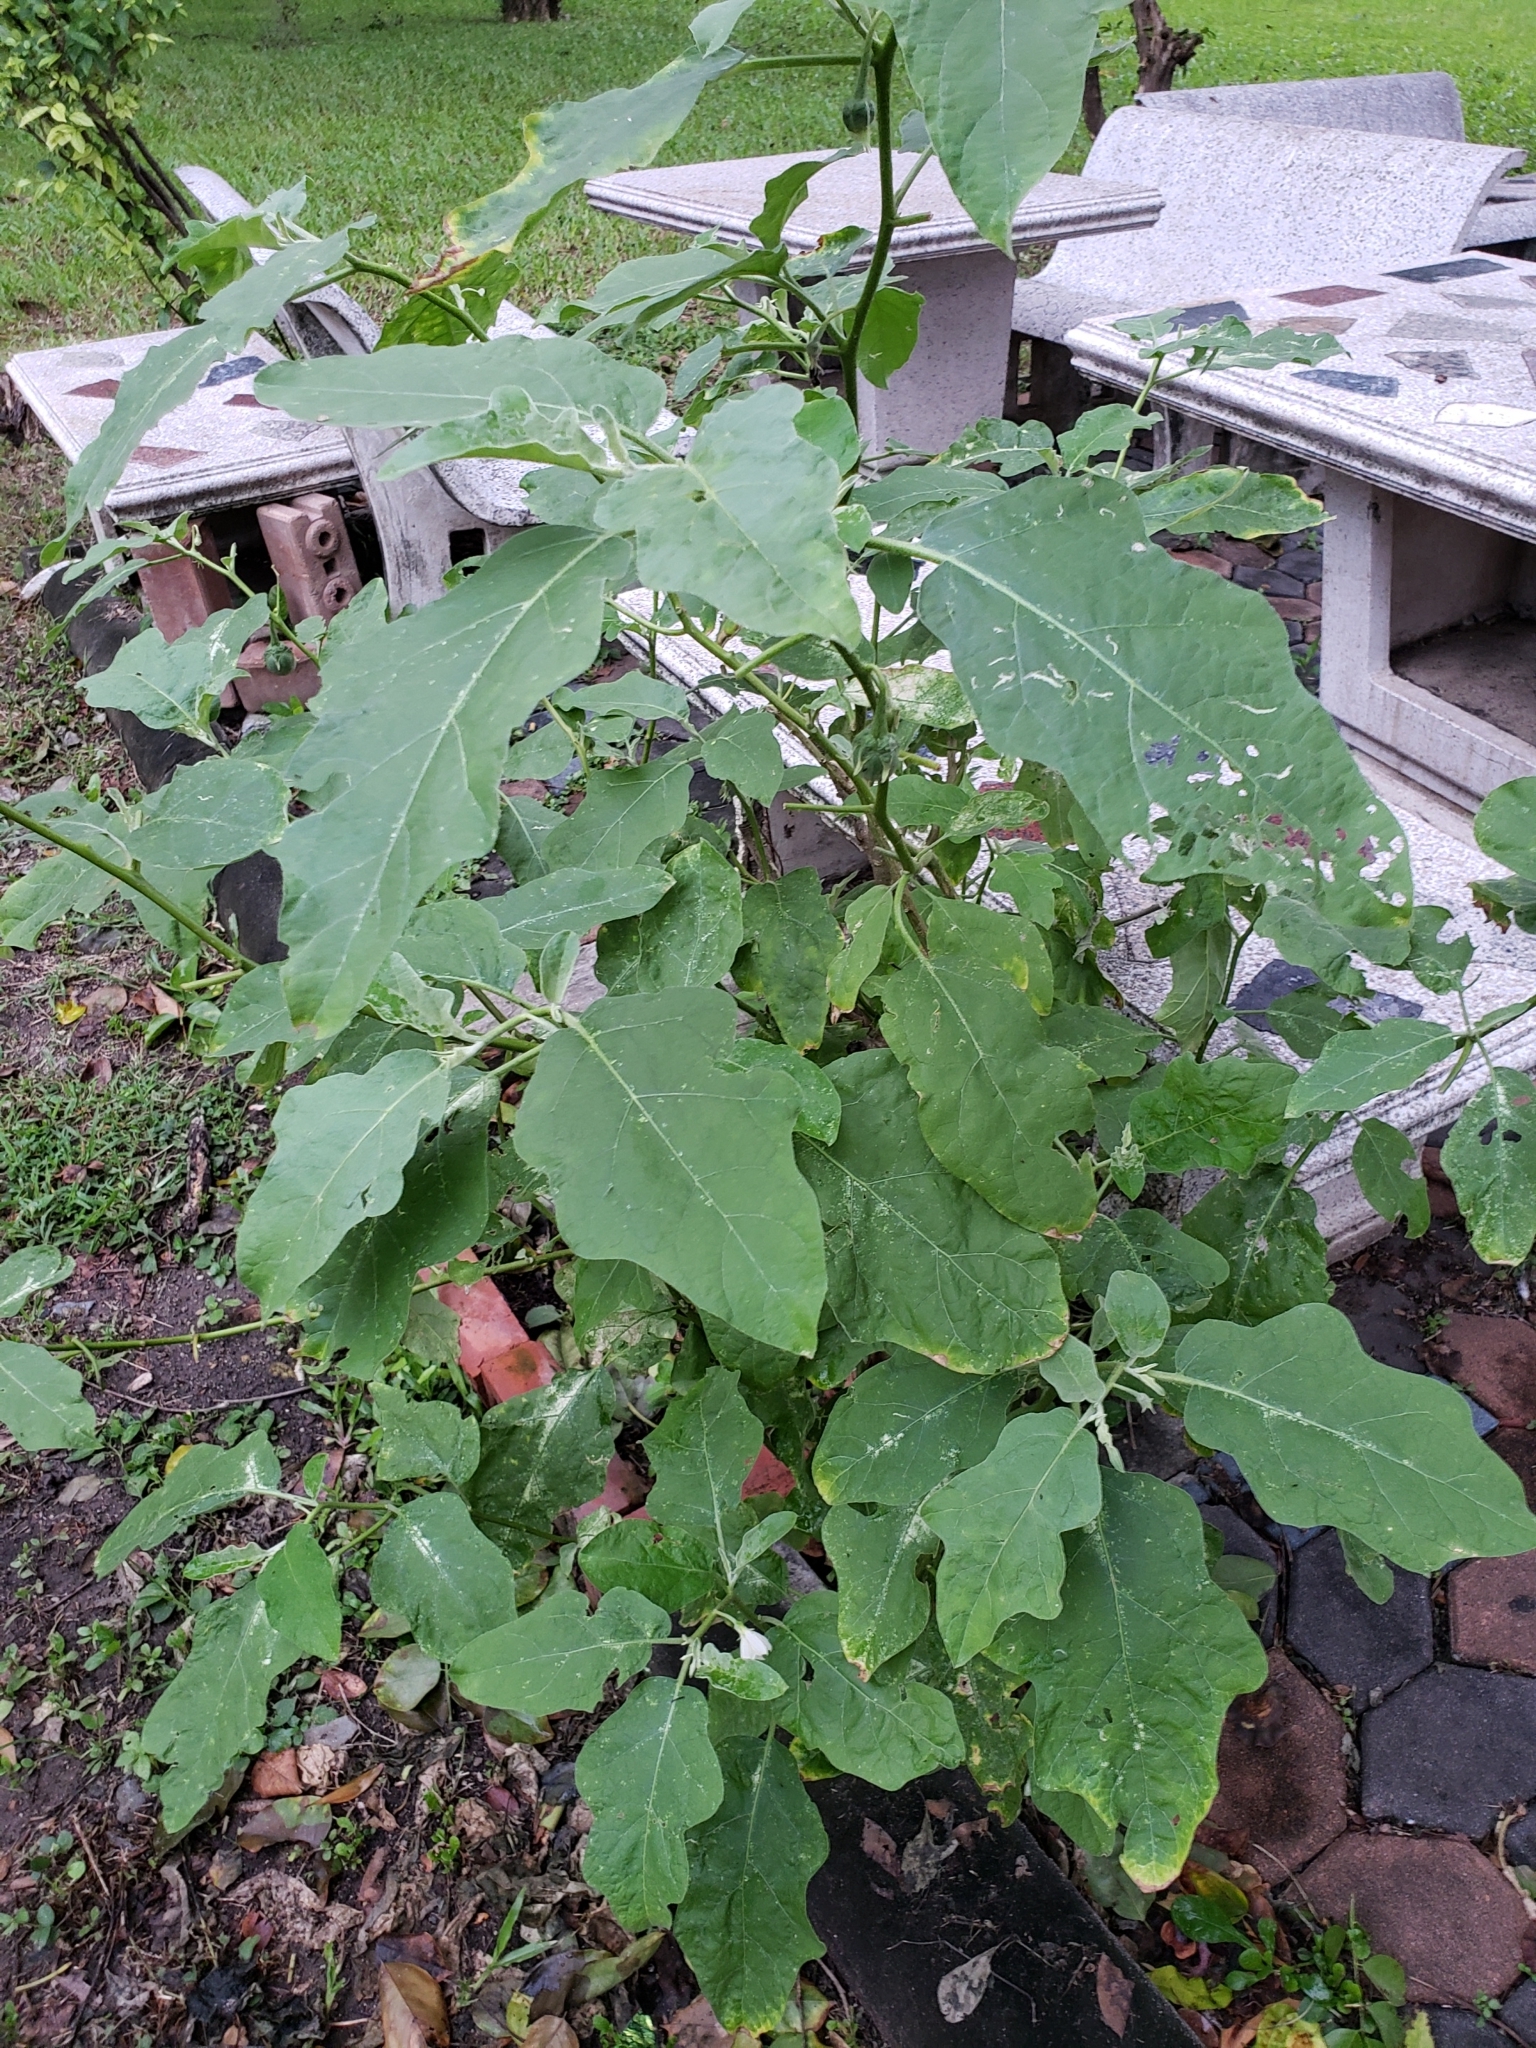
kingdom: Plantae
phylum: Tracheophyta
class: Magnoliopsida
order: Solanales
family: Solanaceae
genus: Solanum
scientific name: Solanum melongena
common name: Eggplant
